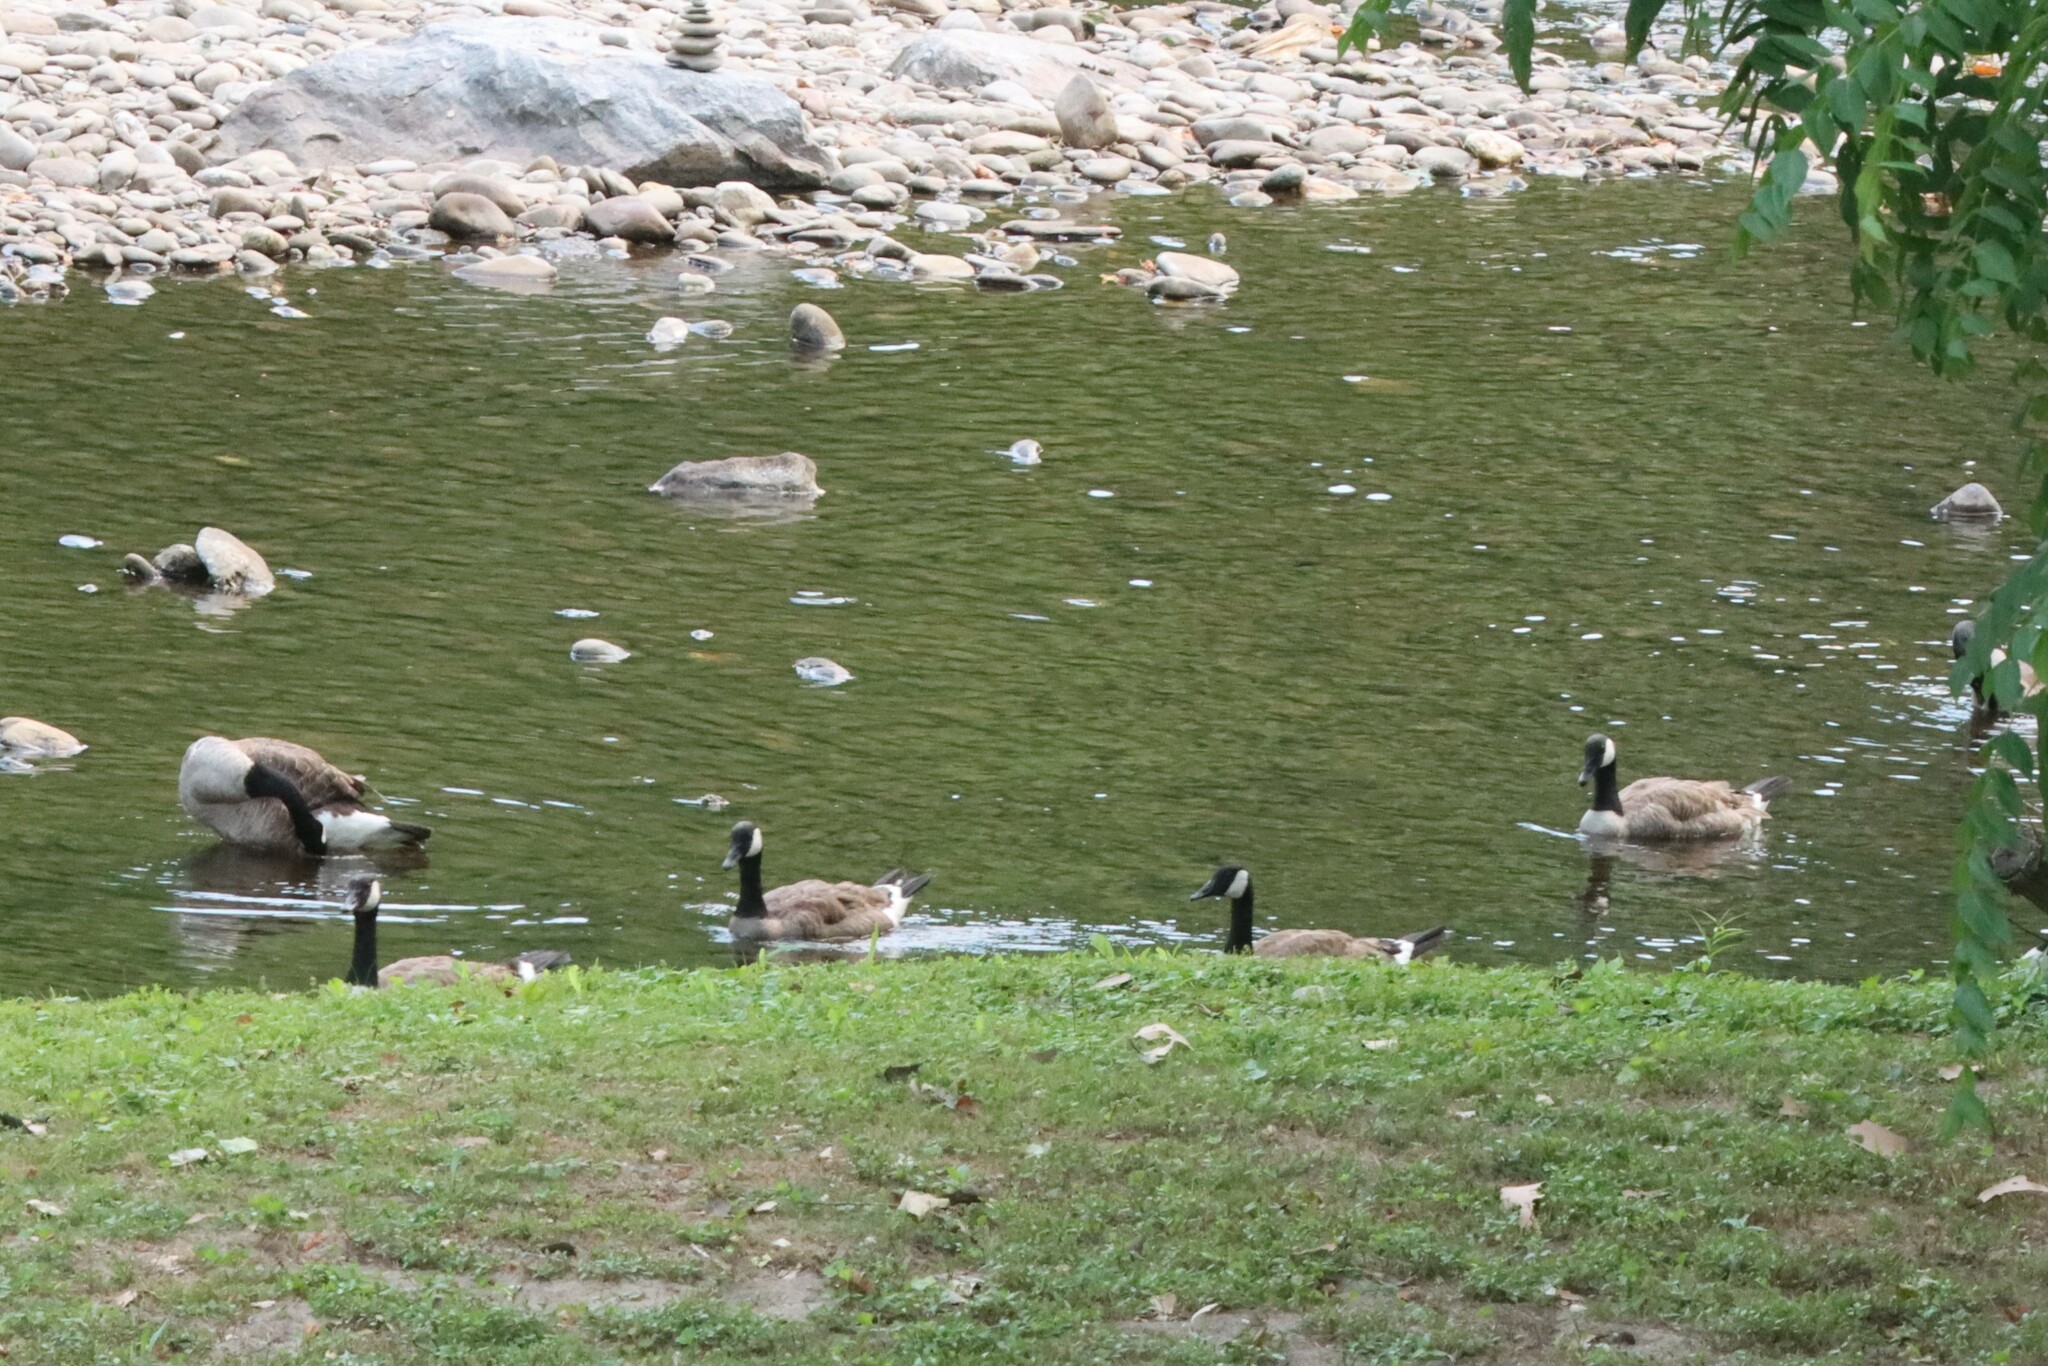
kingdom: Animalia
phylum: Chordata
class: Aves
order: Anseriformes
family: Anatidae
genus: Branta
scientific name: Branta canadensis
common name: Canada goose
